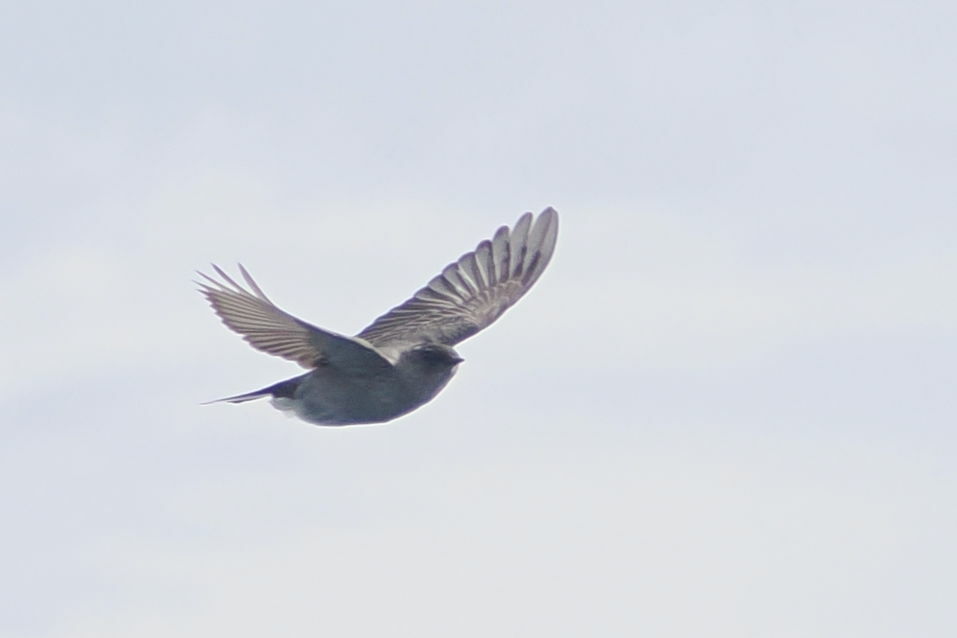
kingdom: Animalia
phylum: Chordata
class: Aves
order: Passeriformes
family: Tyrannidae
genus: Muscisaxicola
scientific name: Muscisaxicola maclovianus
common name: Dark-faced ground tyrant
